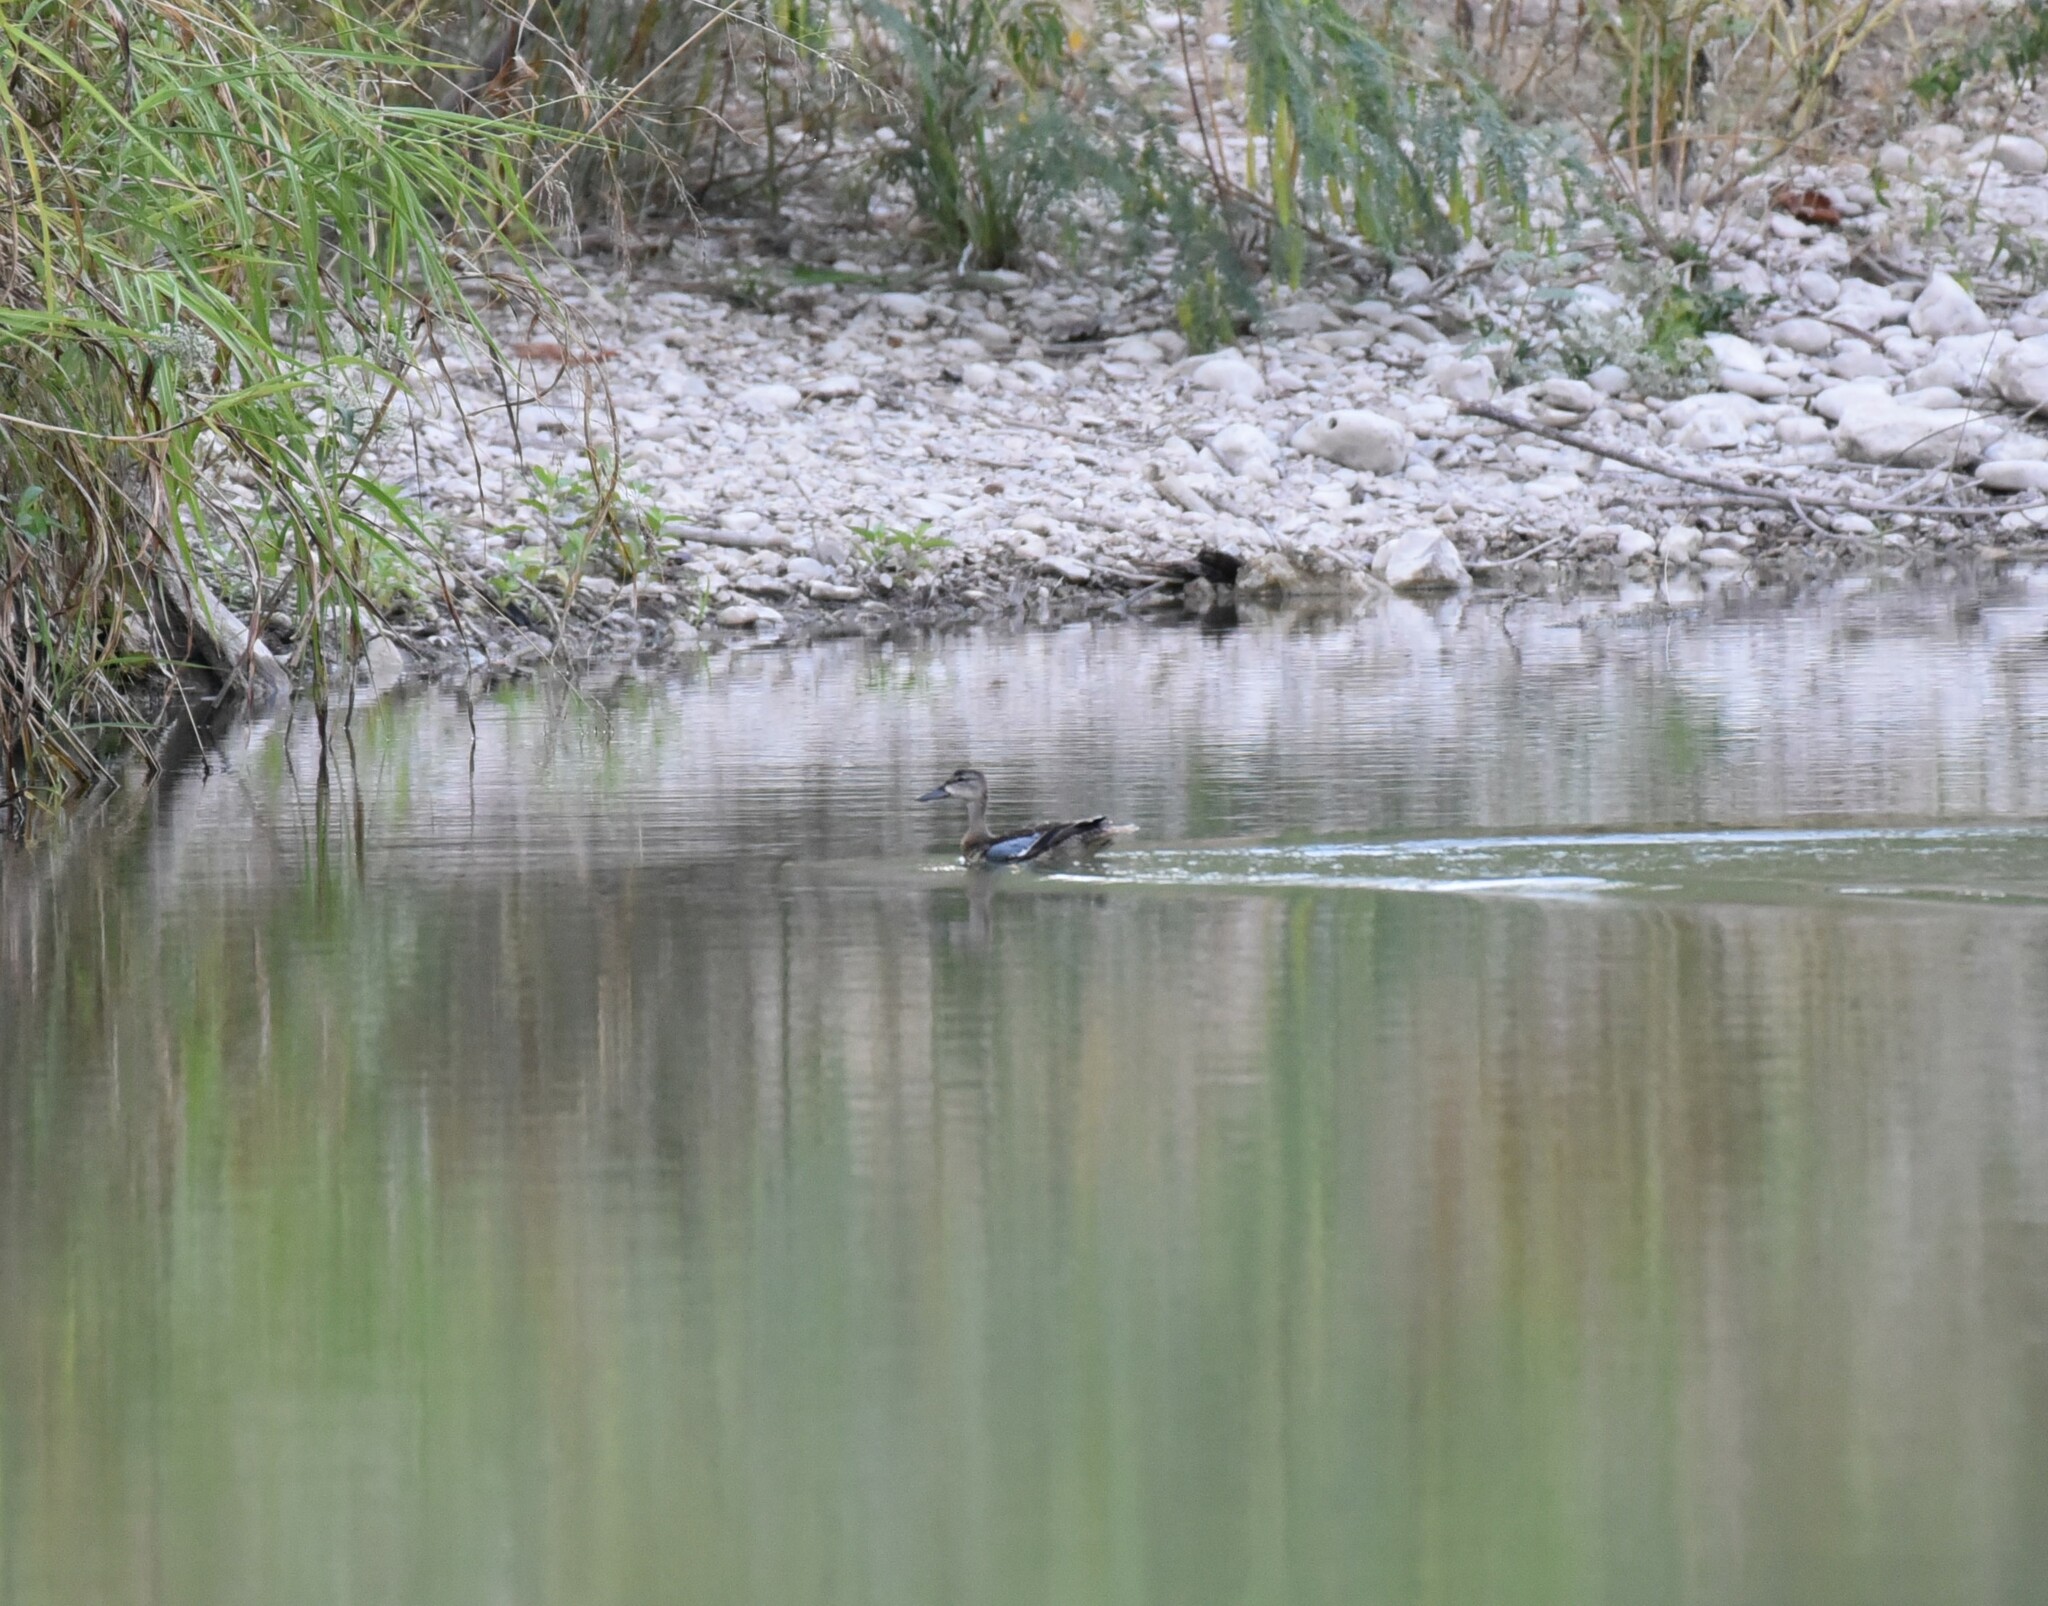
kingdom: Animalia
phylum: Chordata
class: Aves
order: Anseriformes
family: Anatidae
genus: Spatula
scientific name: Spatula discors
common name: Blue-winged teal
